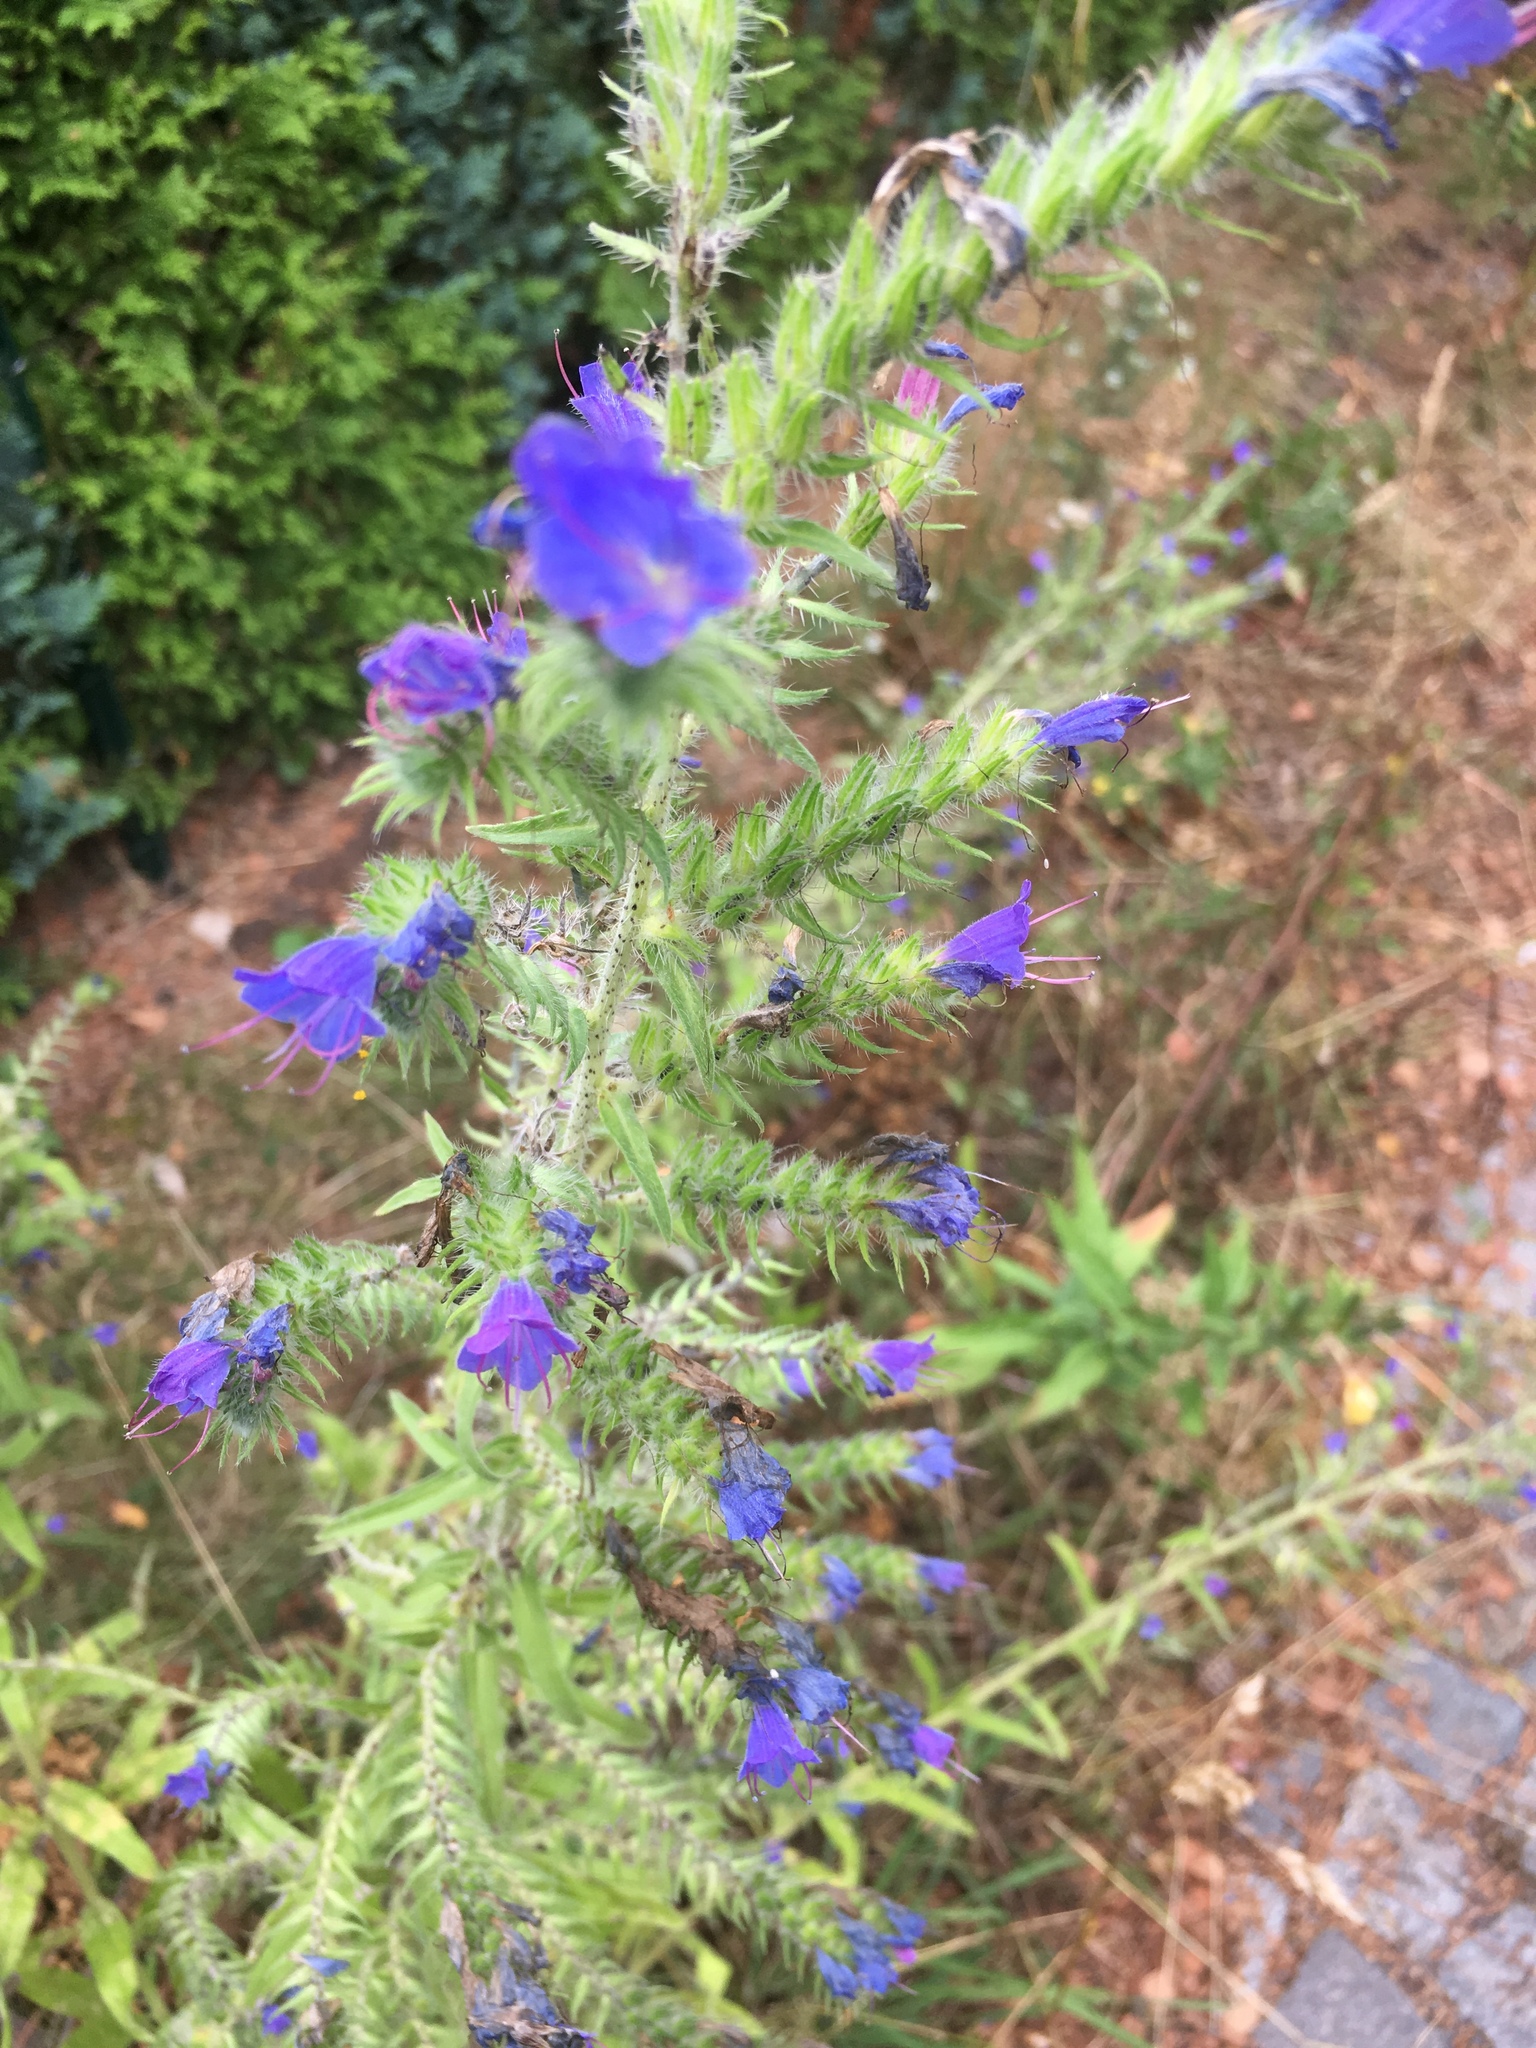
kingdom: Plantae
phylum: Tracheophyta
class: Magnoliopsida
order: Boraginales
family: Boraginaceae
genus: Echium
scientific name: Echium vulgare
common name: Common viper's bugloss
